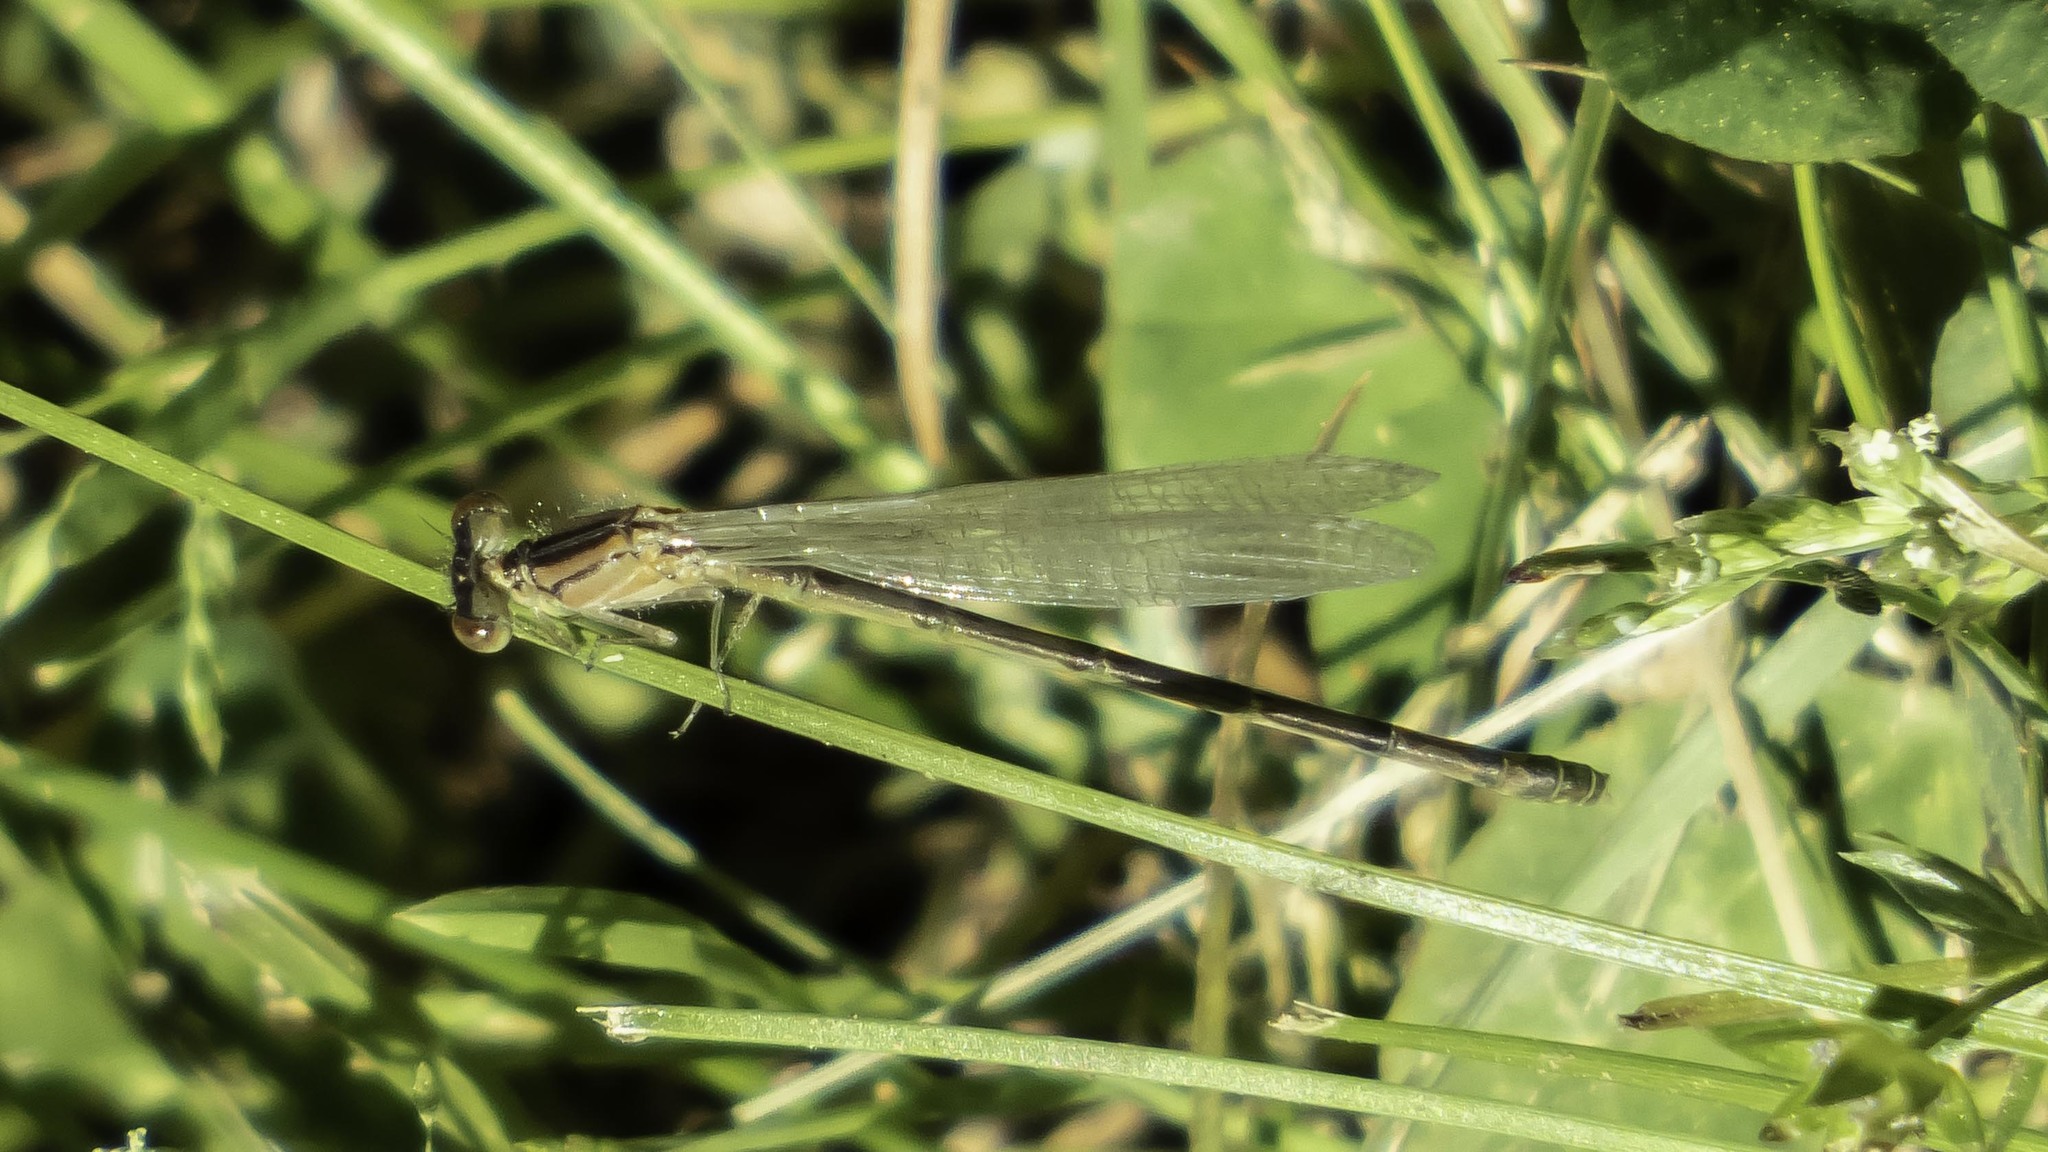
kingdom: Animalia
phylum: Arthropoda
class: Insecta
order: Odonata
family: Coenagrionidae
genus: Enallagma
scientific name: Enallagma aspersum
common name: Azure bluet
